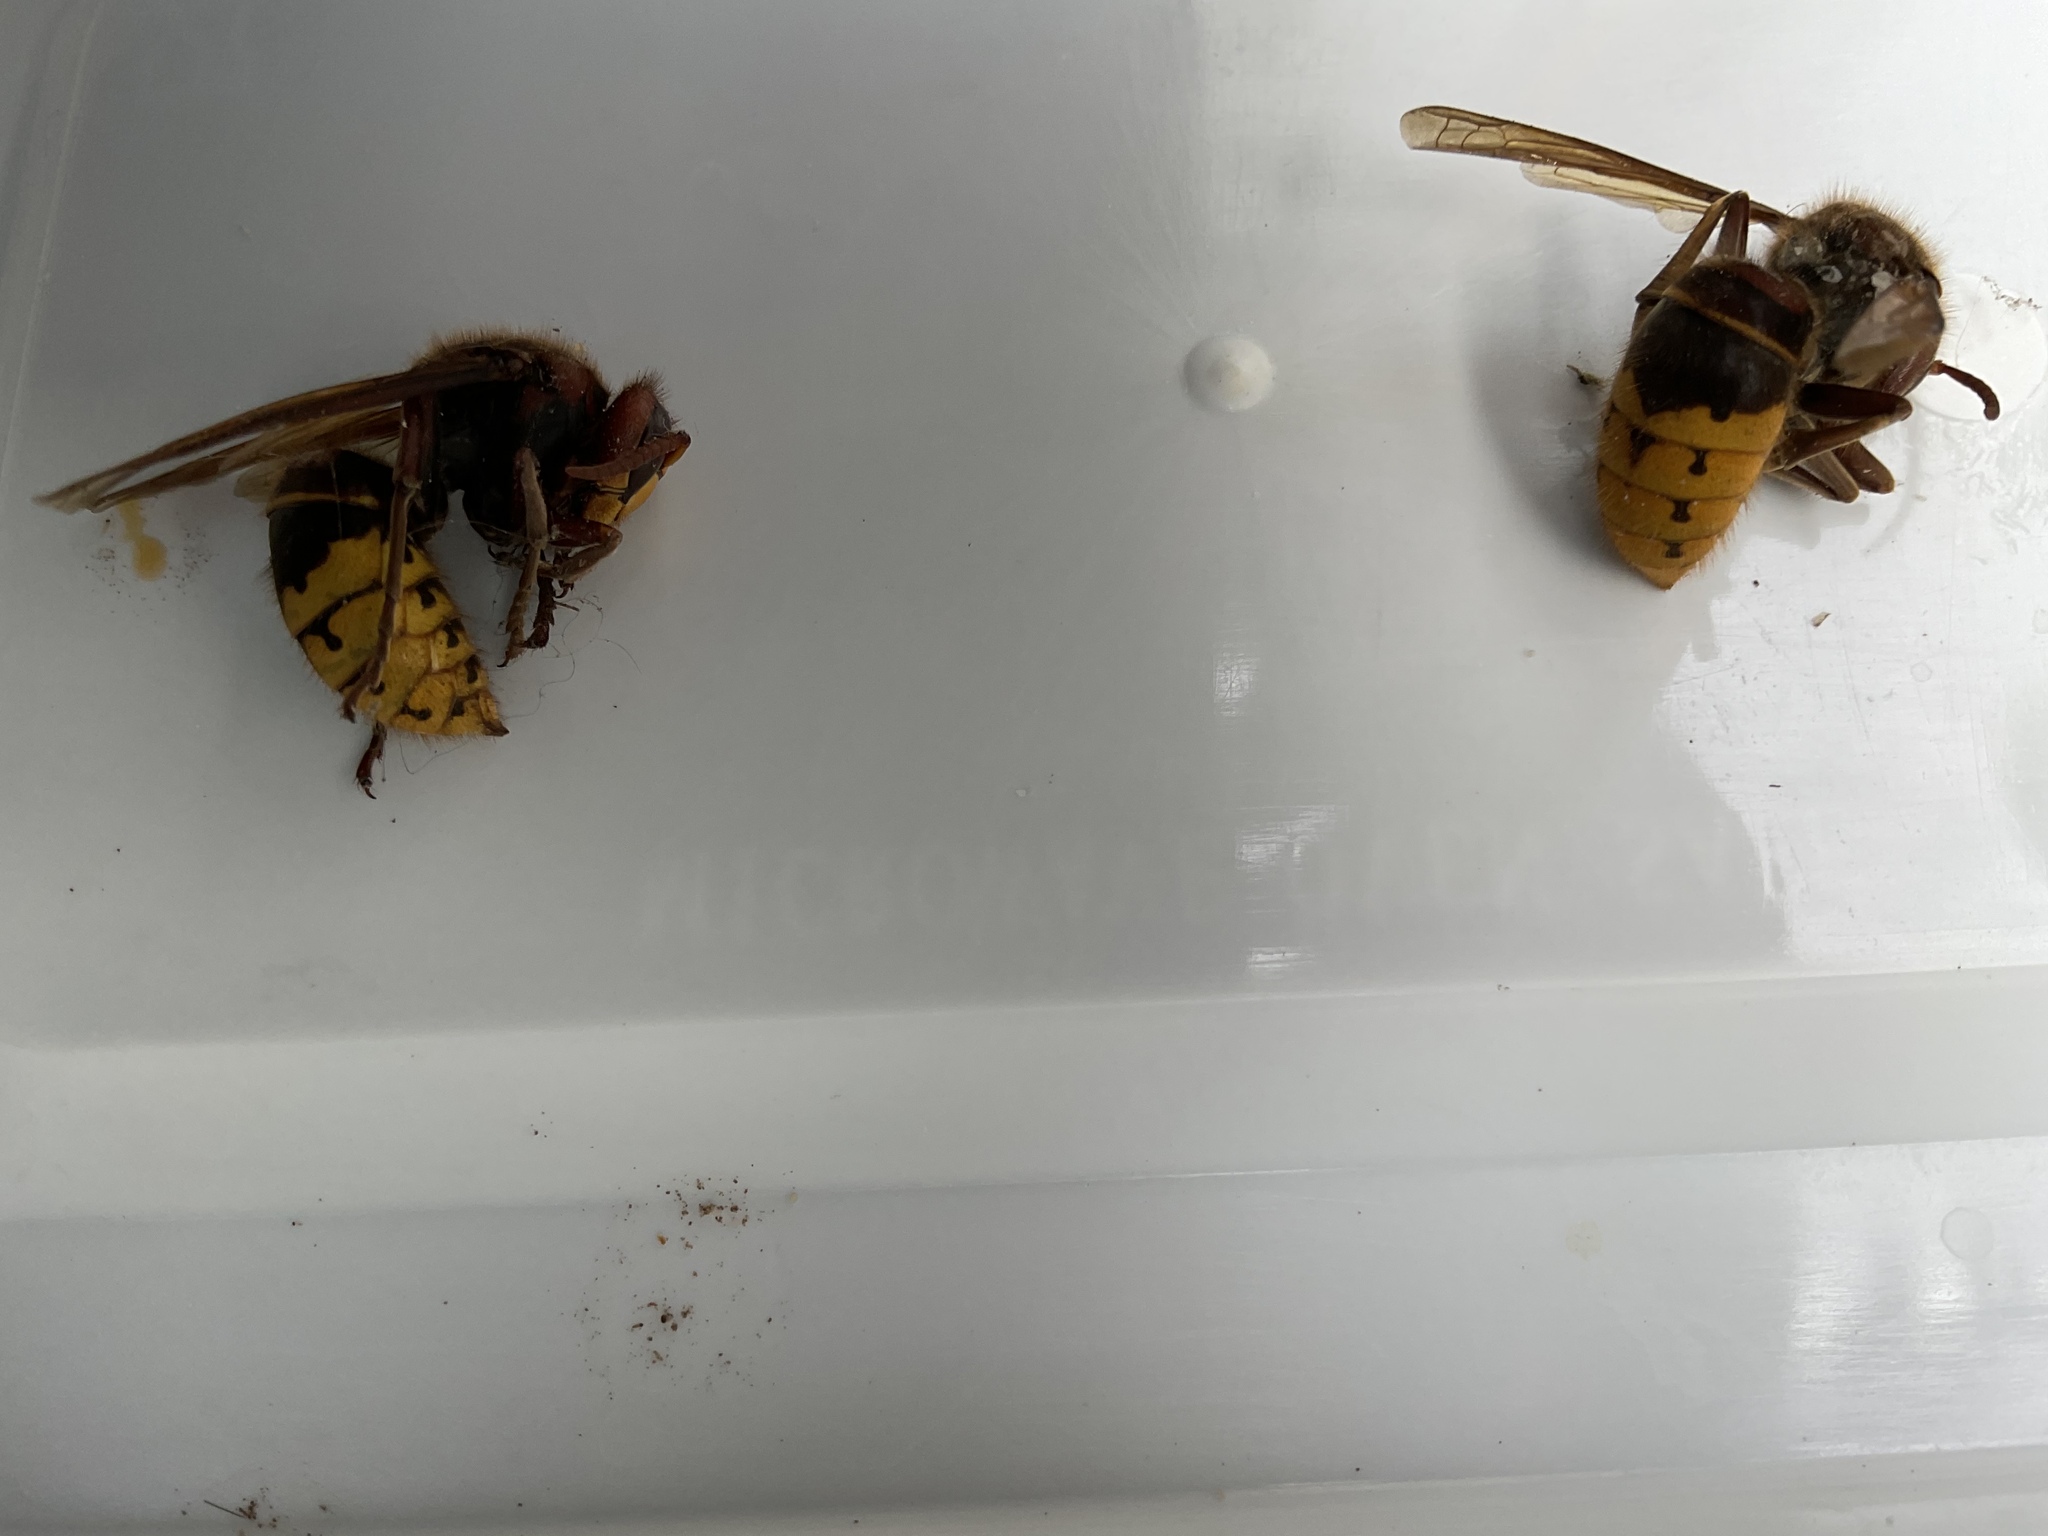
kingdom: Animalia
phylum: Arthropoda
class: Insecta
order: Hymenoptera
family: Vespidae
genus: Vespa
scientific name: Vespa crabro
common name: Hornet
